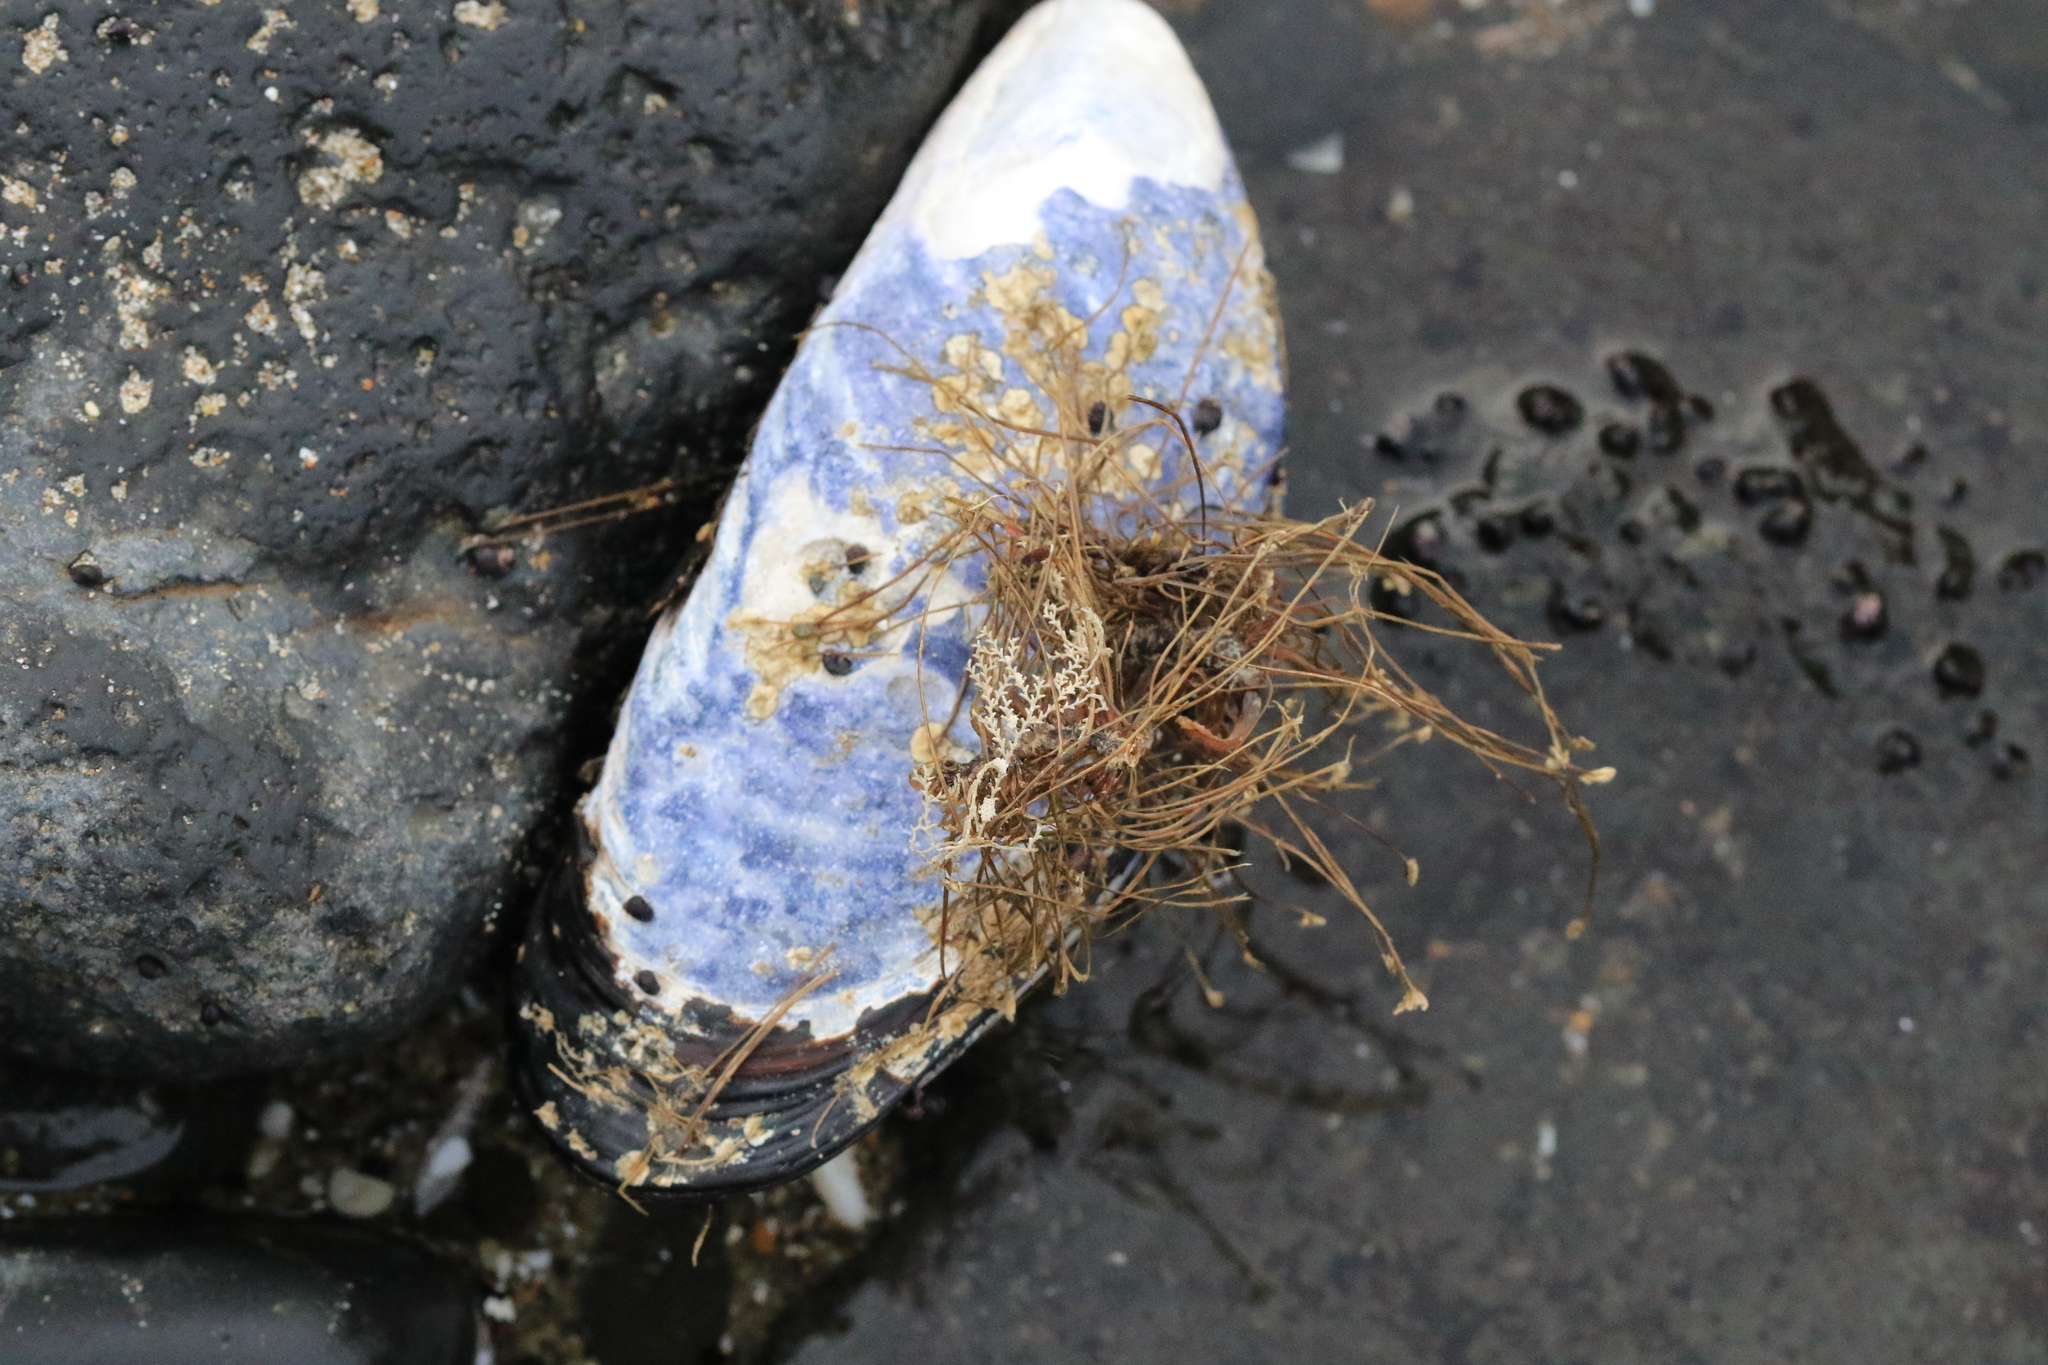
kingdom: Animalia
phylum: Mollusca
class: Bivalvia
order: Mytilida
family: Mytilidae
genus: Mytilus
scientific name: Mytilus californianus
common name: California mussel
